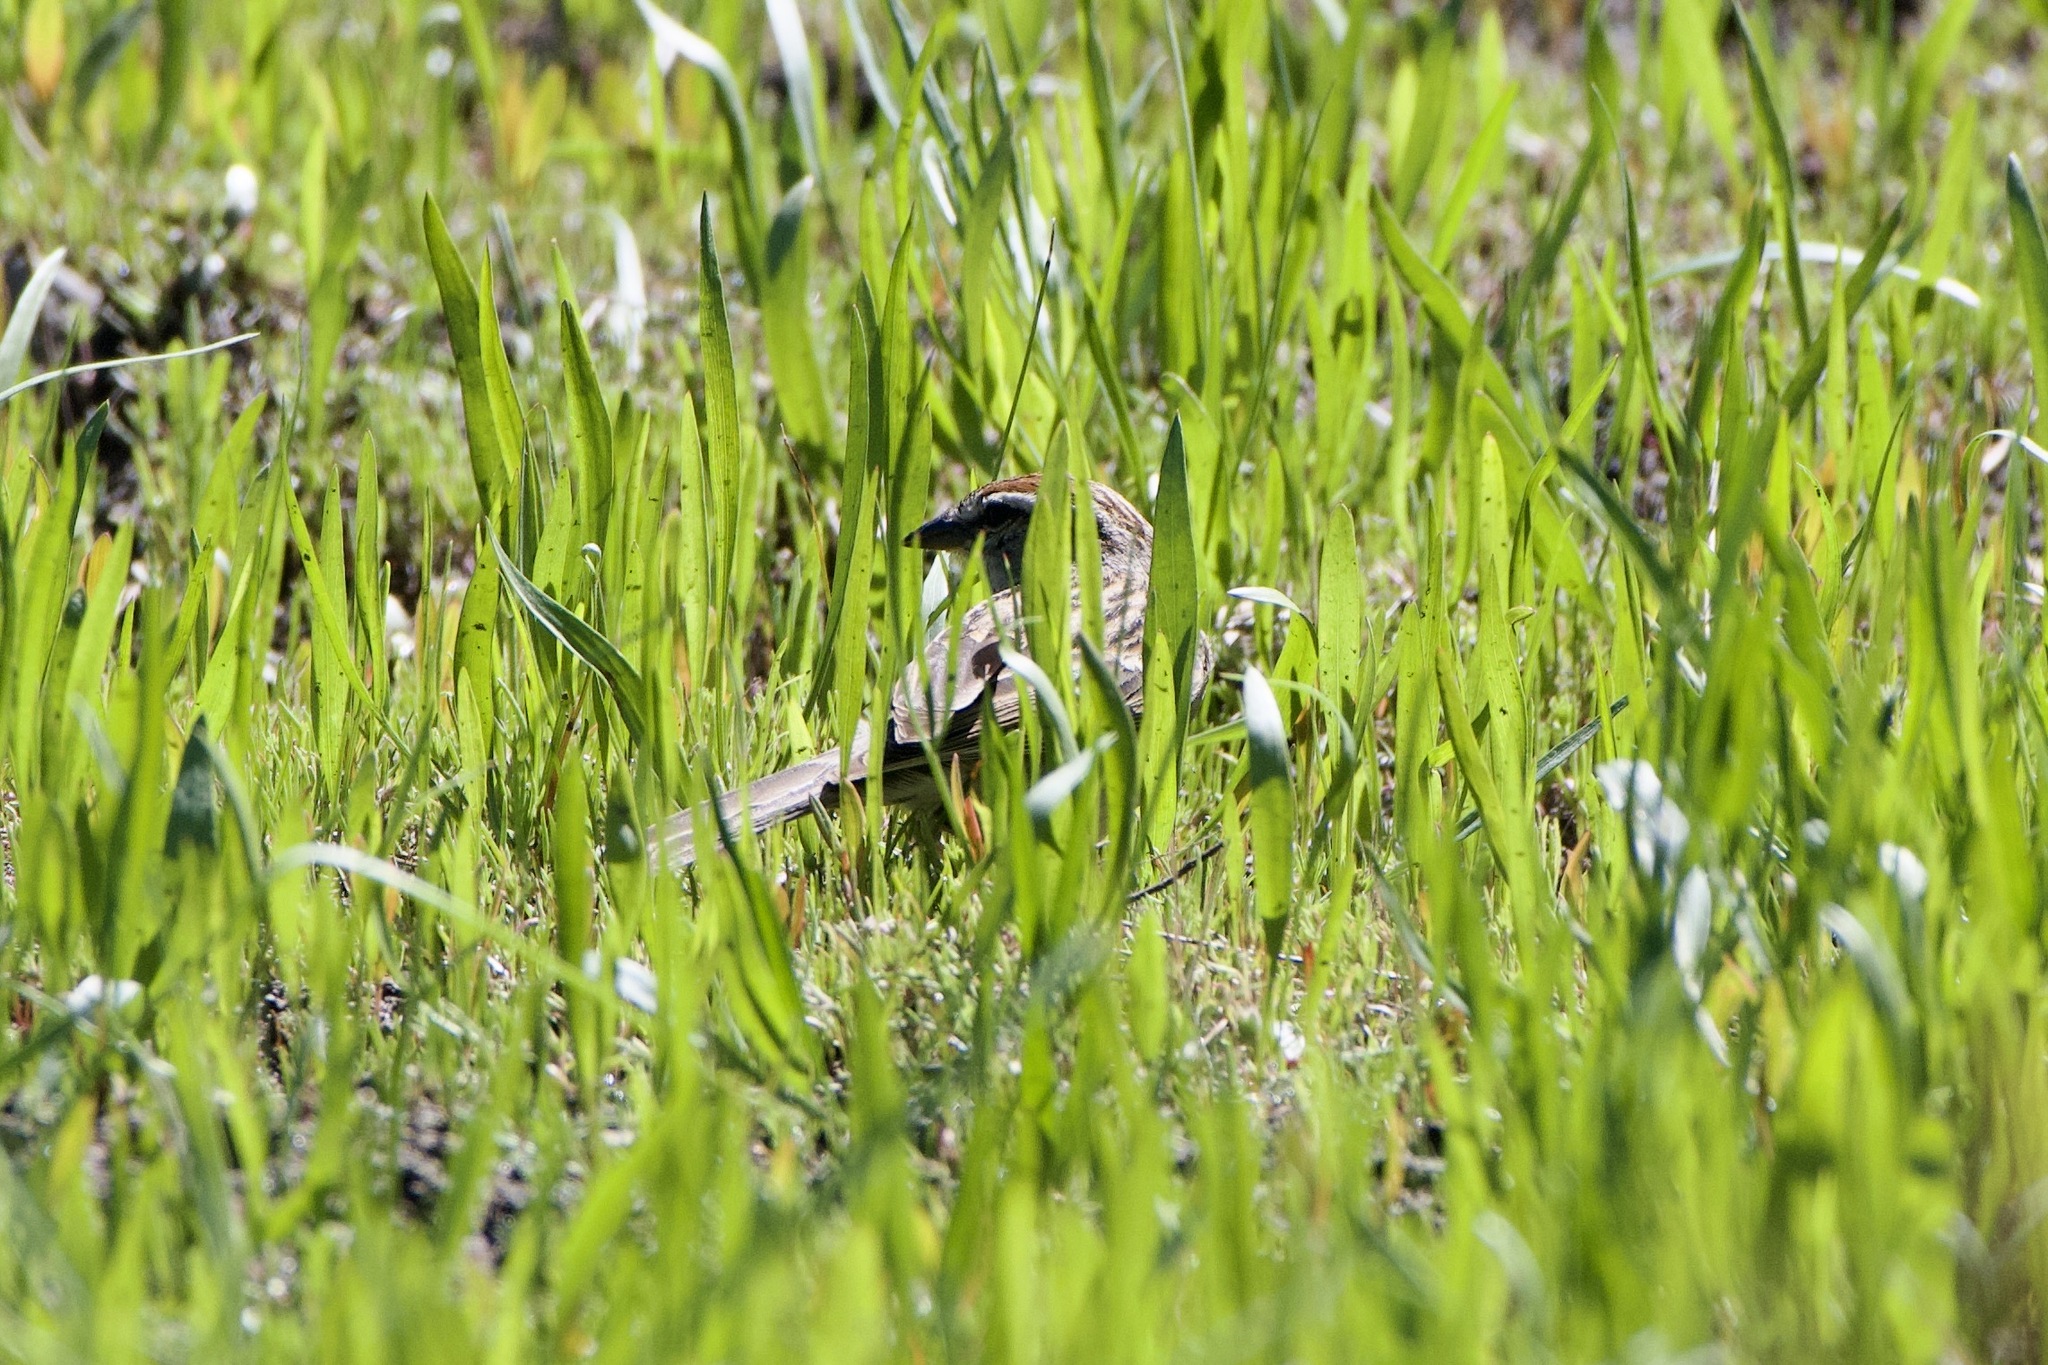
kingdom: Animalia
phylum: Chordata
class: Aves
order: Passeriformes
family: Passerellidae
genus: Spizella
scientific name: Spizella passerina
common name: Chipping sparrow
